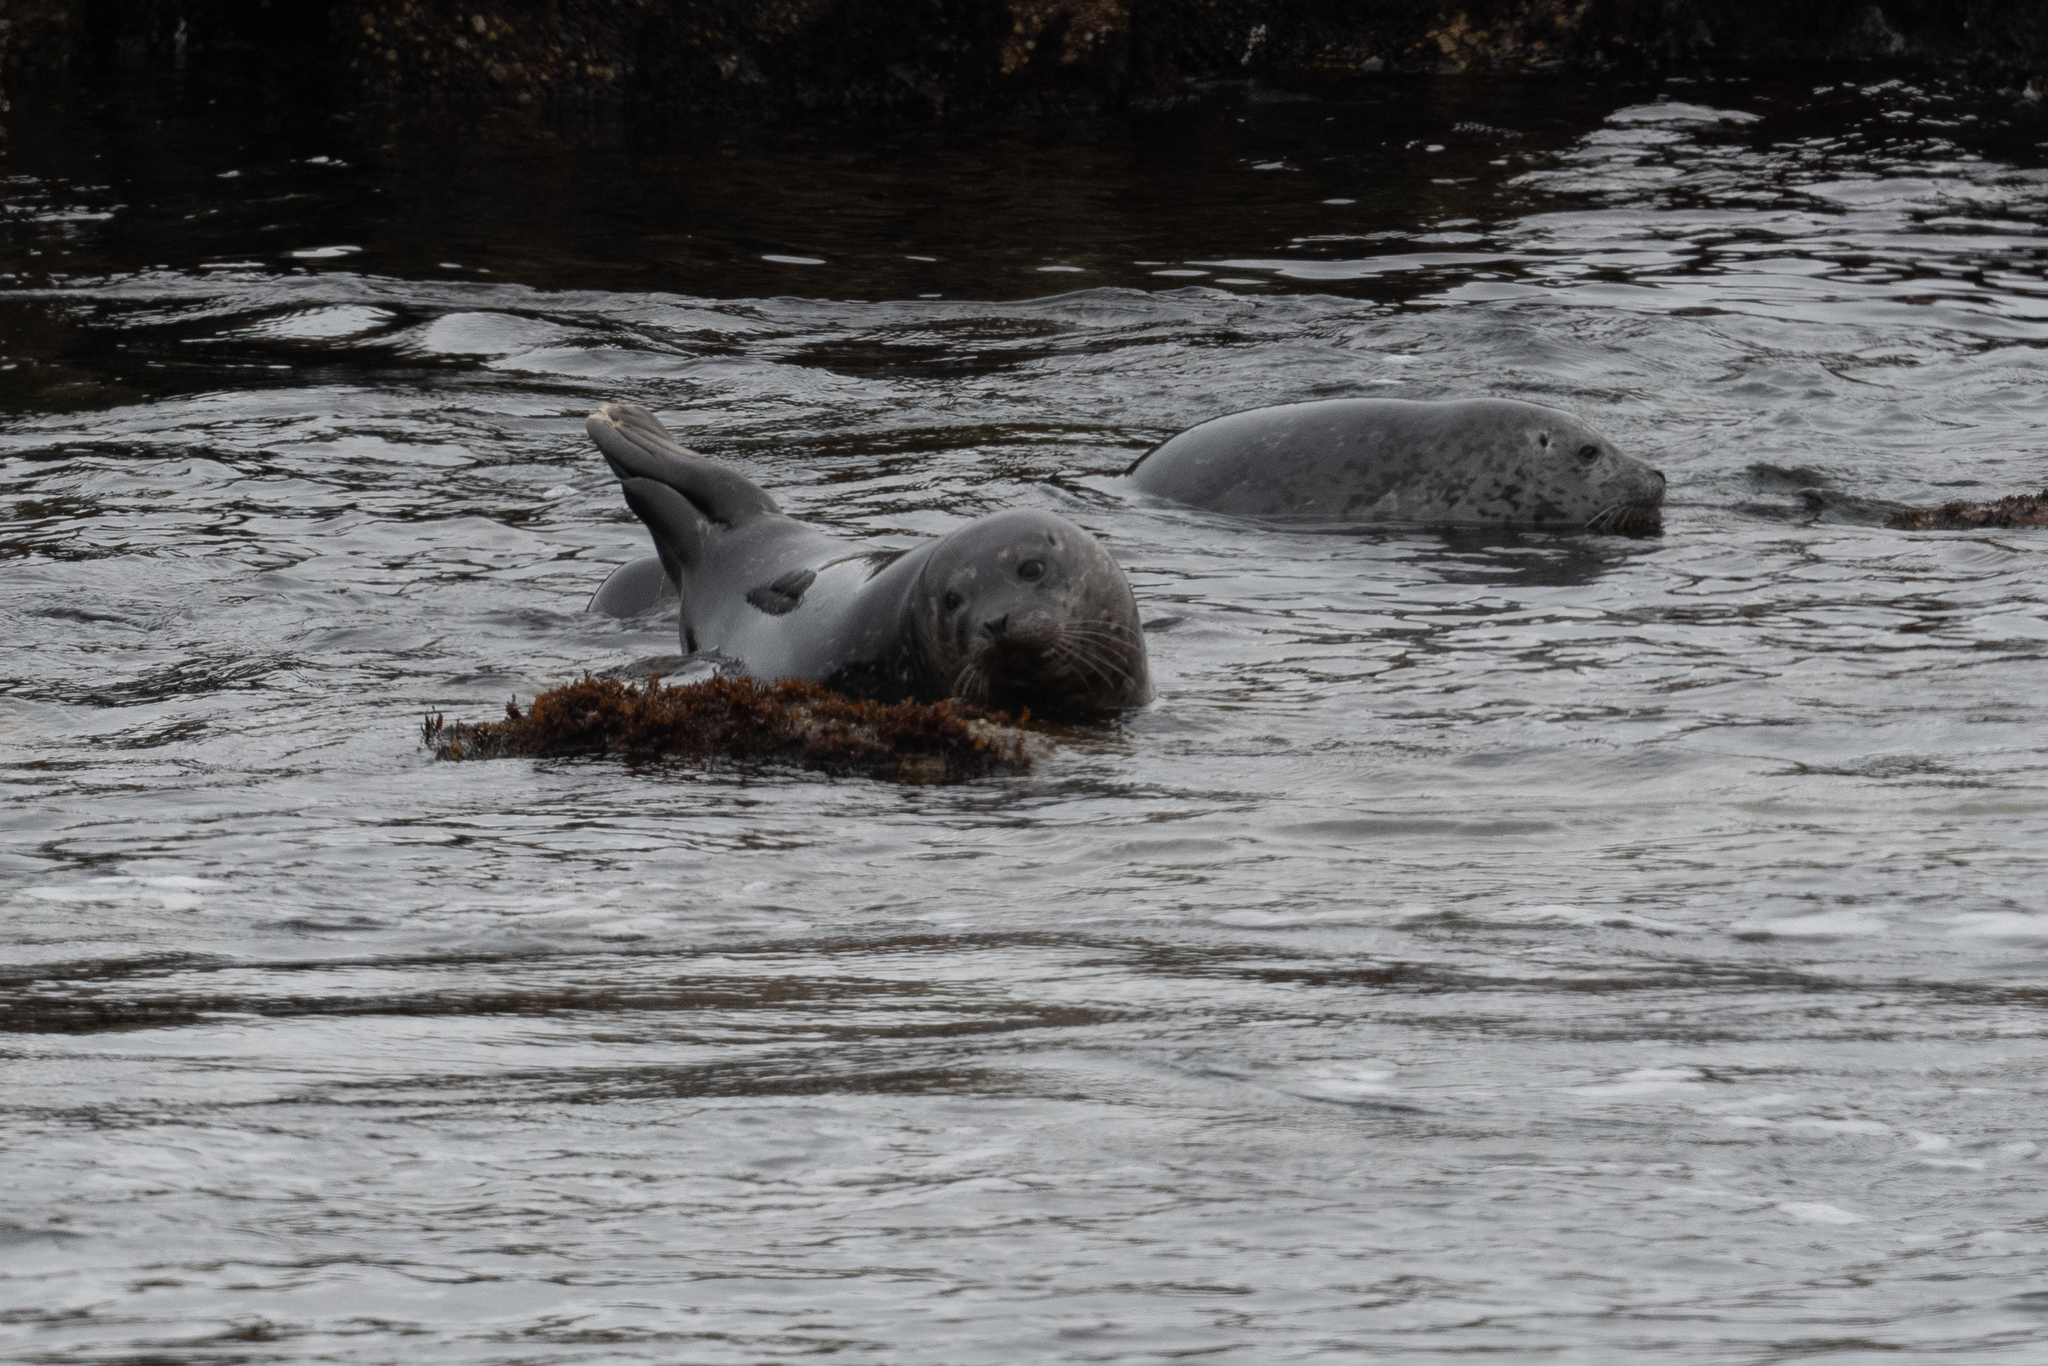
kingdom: Animalia
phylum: Chordata
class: Mammalia
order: Carnivora
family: Phocidae
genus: Phoca
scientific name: Phoca vitulina
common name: Harbor seal
